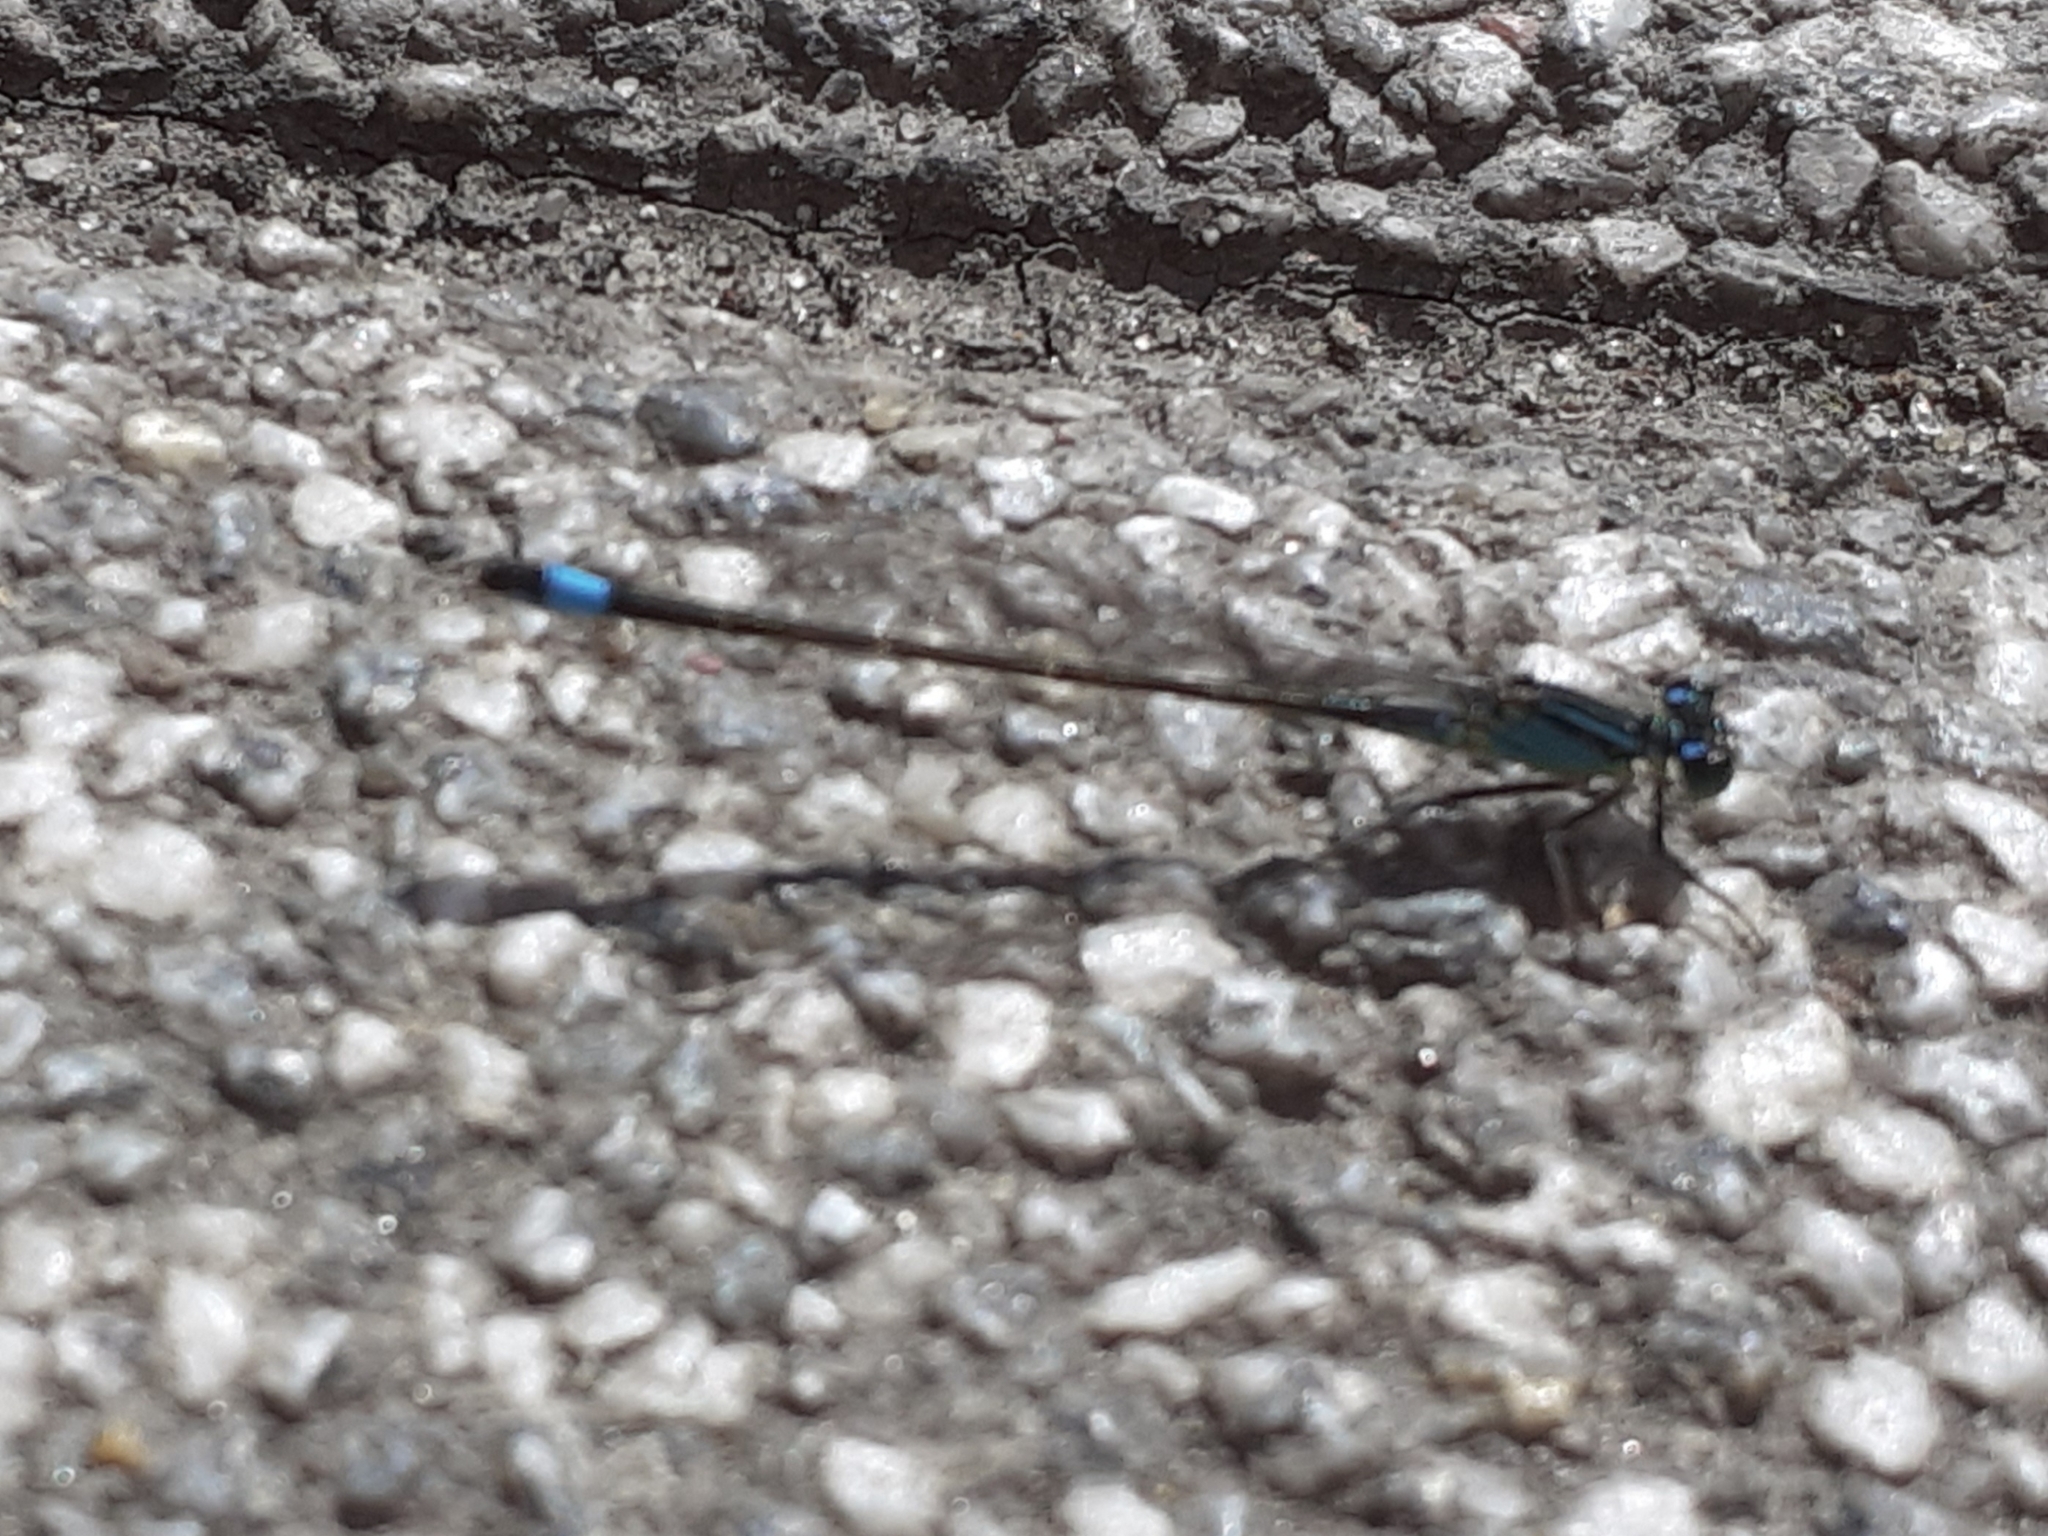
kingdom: Animalia
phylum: Arthropoda
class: Insecta
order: Odonata
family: Coenagrionidae
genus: Ischnura
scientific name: Ischnura elegans
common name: Blue-tailed damselfly
